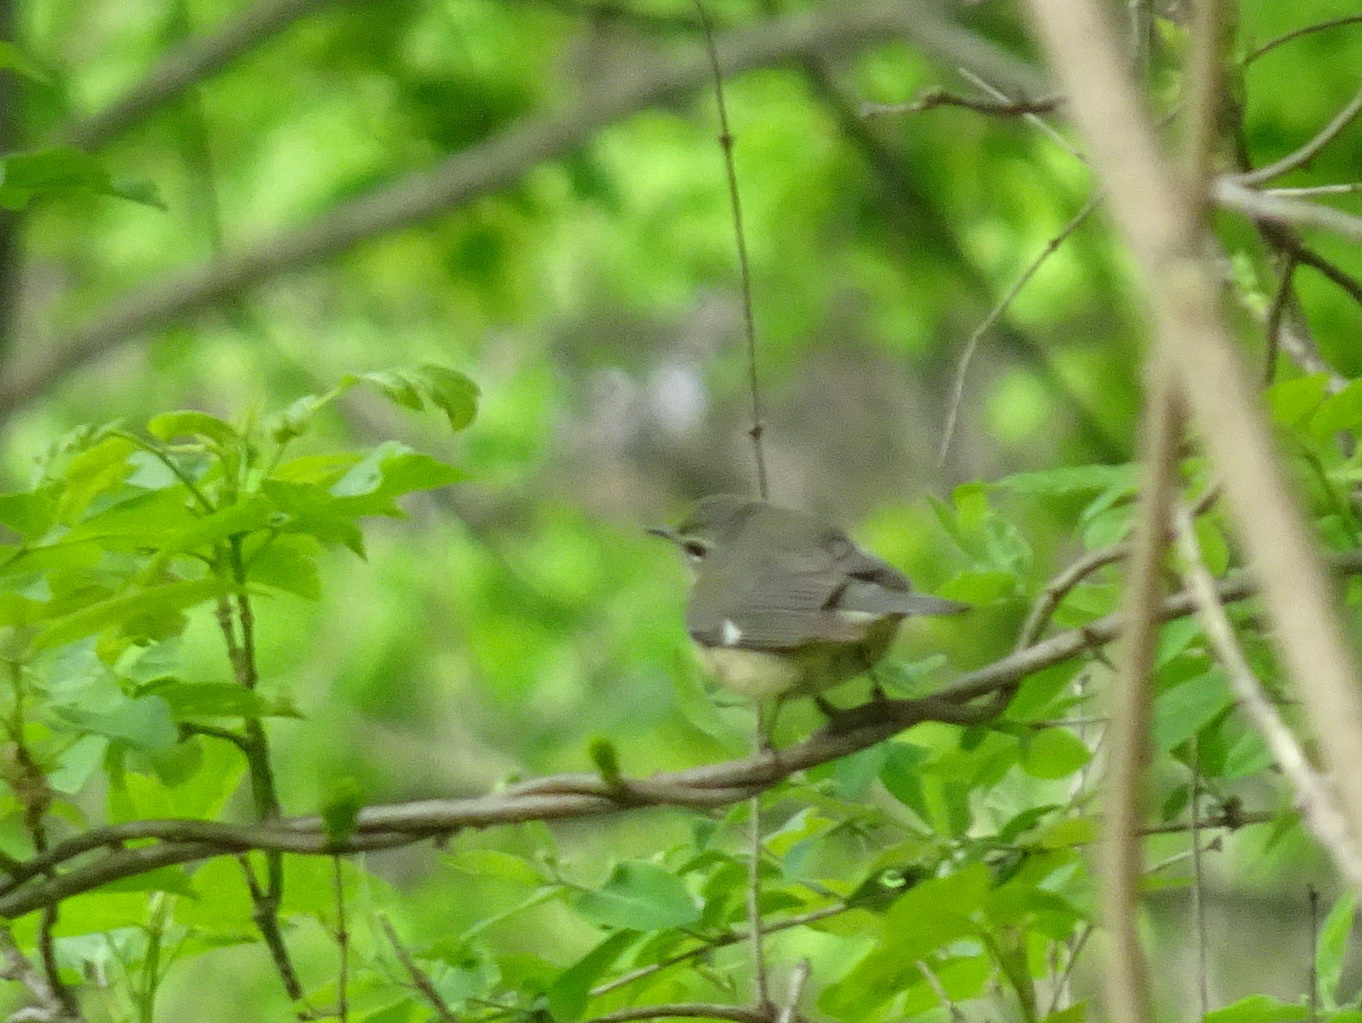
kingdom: Animalia
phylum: Chordata
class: Aves
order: Passeriformes
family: Parulidae
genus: Setophaga
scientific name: Setophaga caerulescens
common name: Black-throated blue warbler
